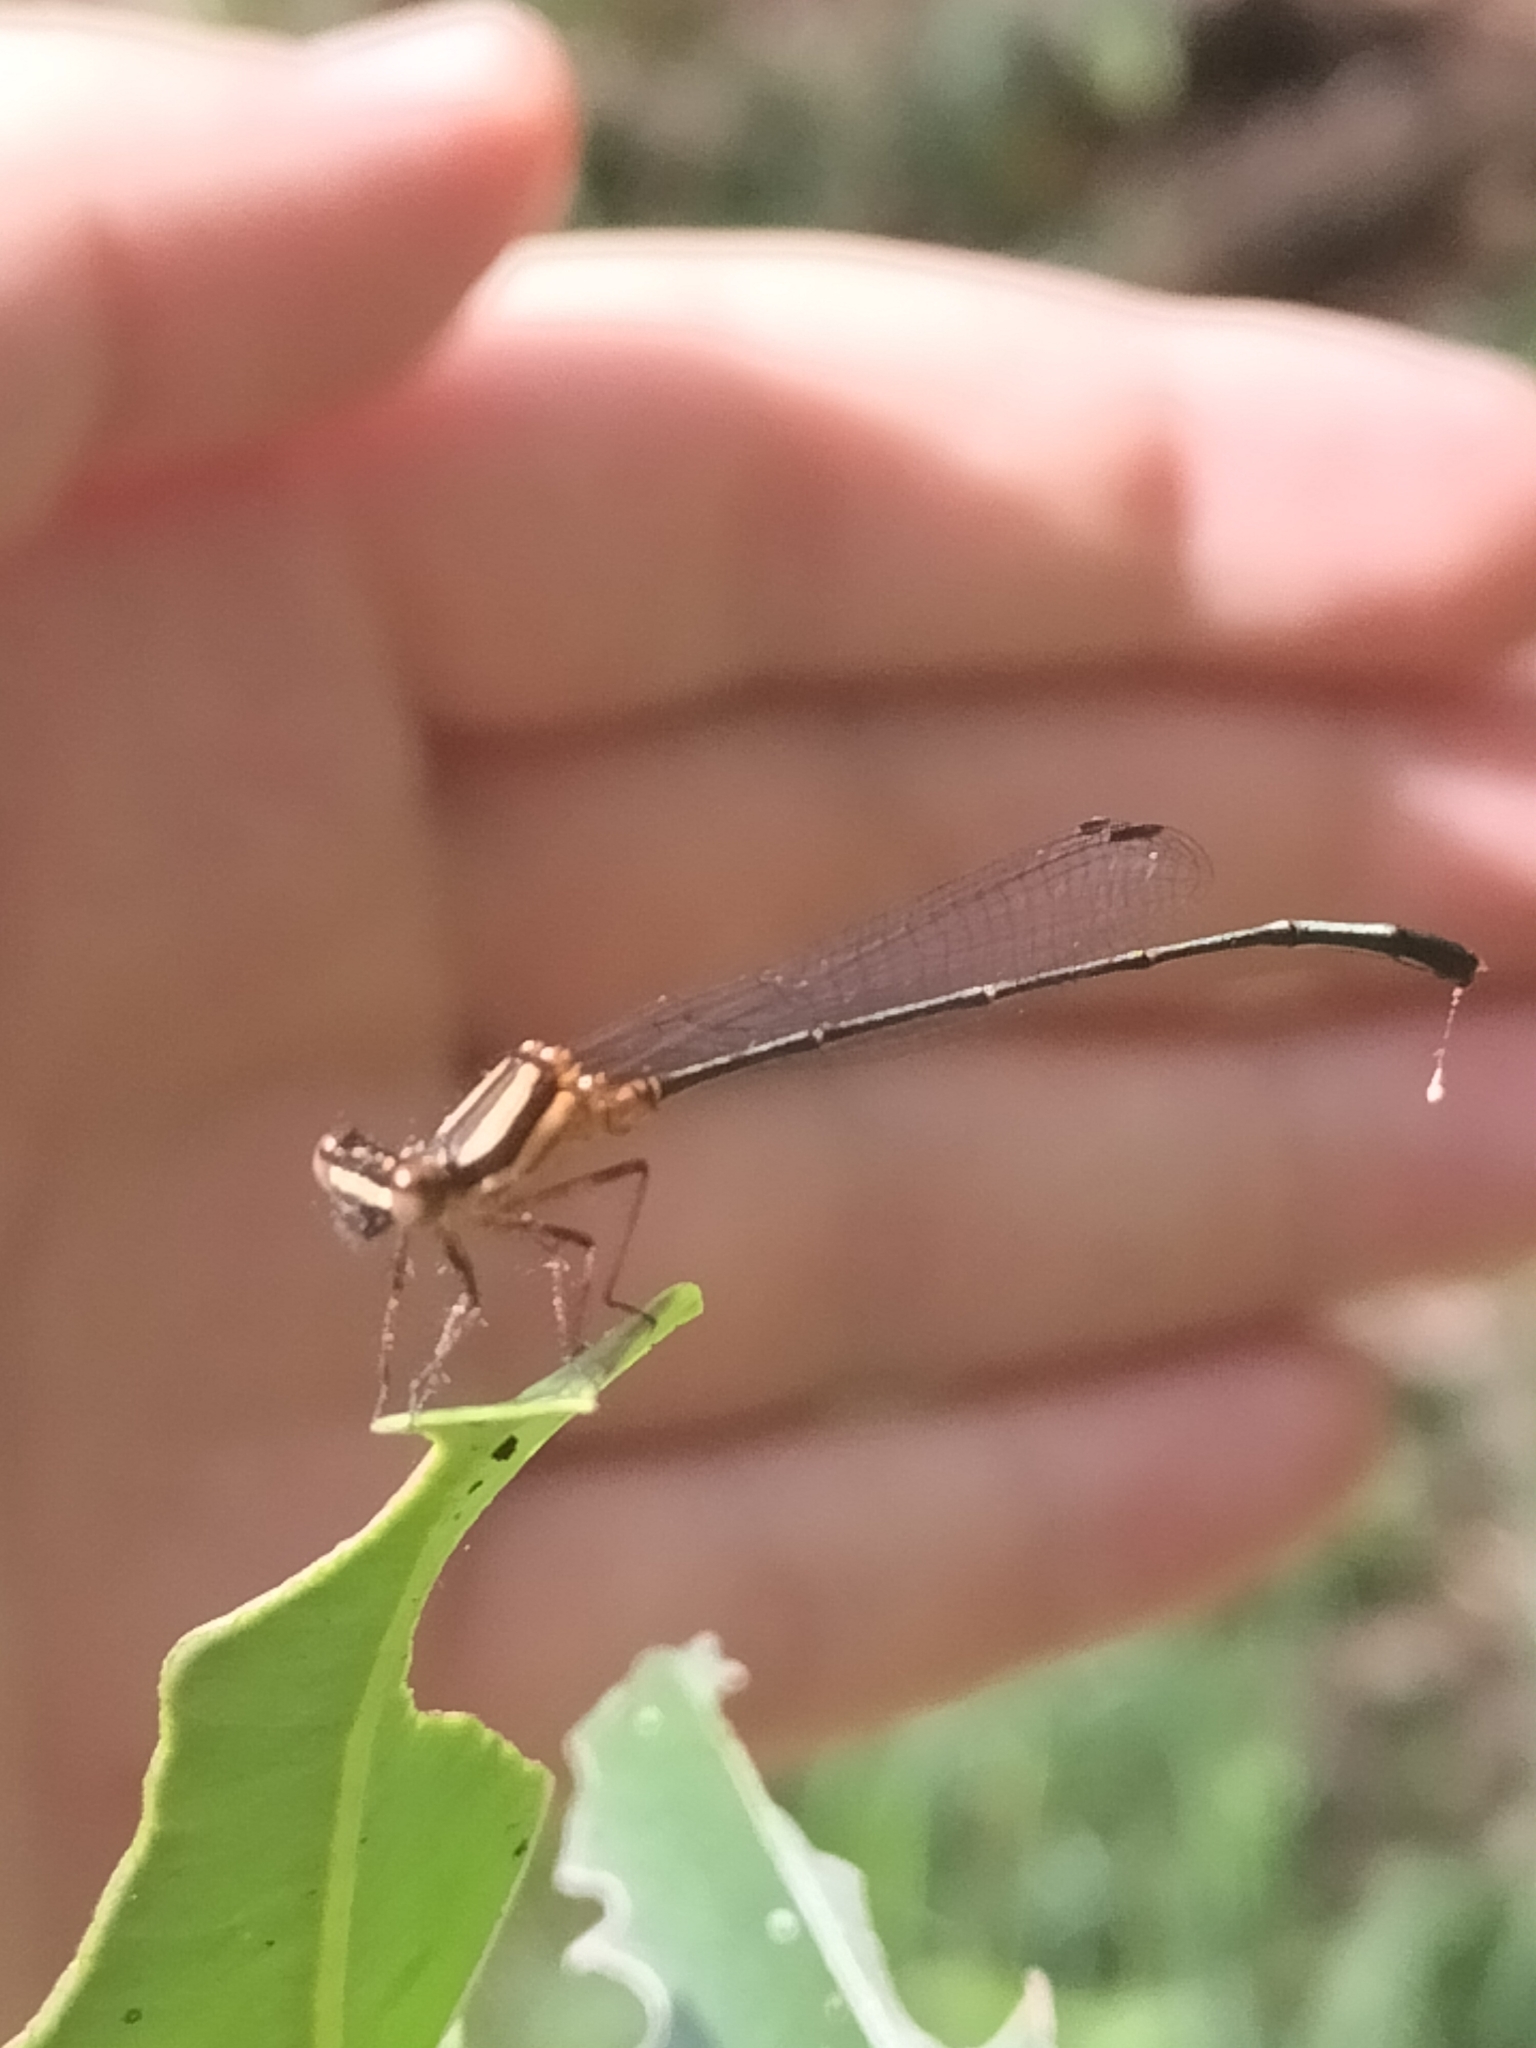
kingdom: Animalia
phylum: Arthropoda
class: Insecta
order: Odonata
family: Platycnemididae
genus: Nososticta
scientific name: Nososticta solida
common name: Orange threadtail
